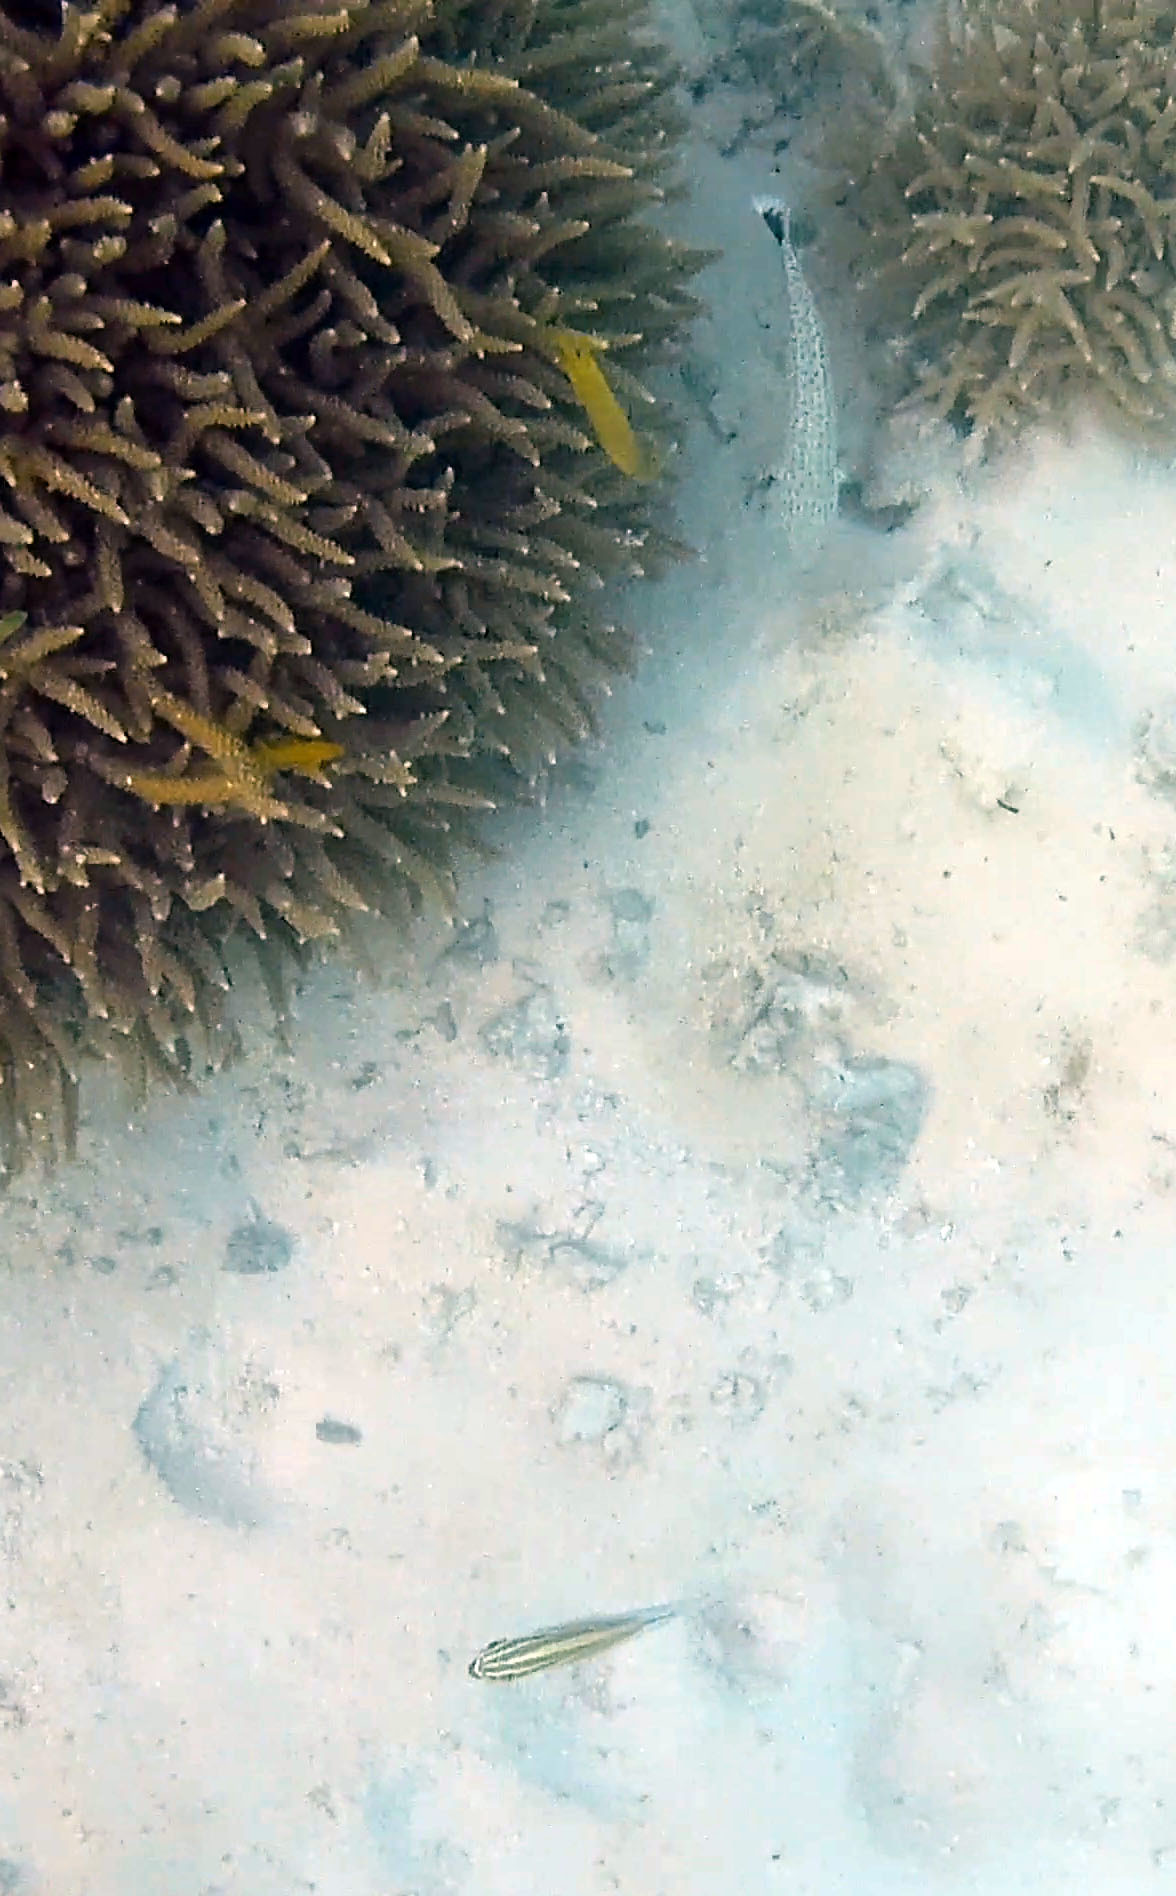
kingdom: Animalia
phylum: Chordata
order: Perciformes
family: Pinguipedidae
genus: Parapercis
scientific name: Parapercis queenslandica
